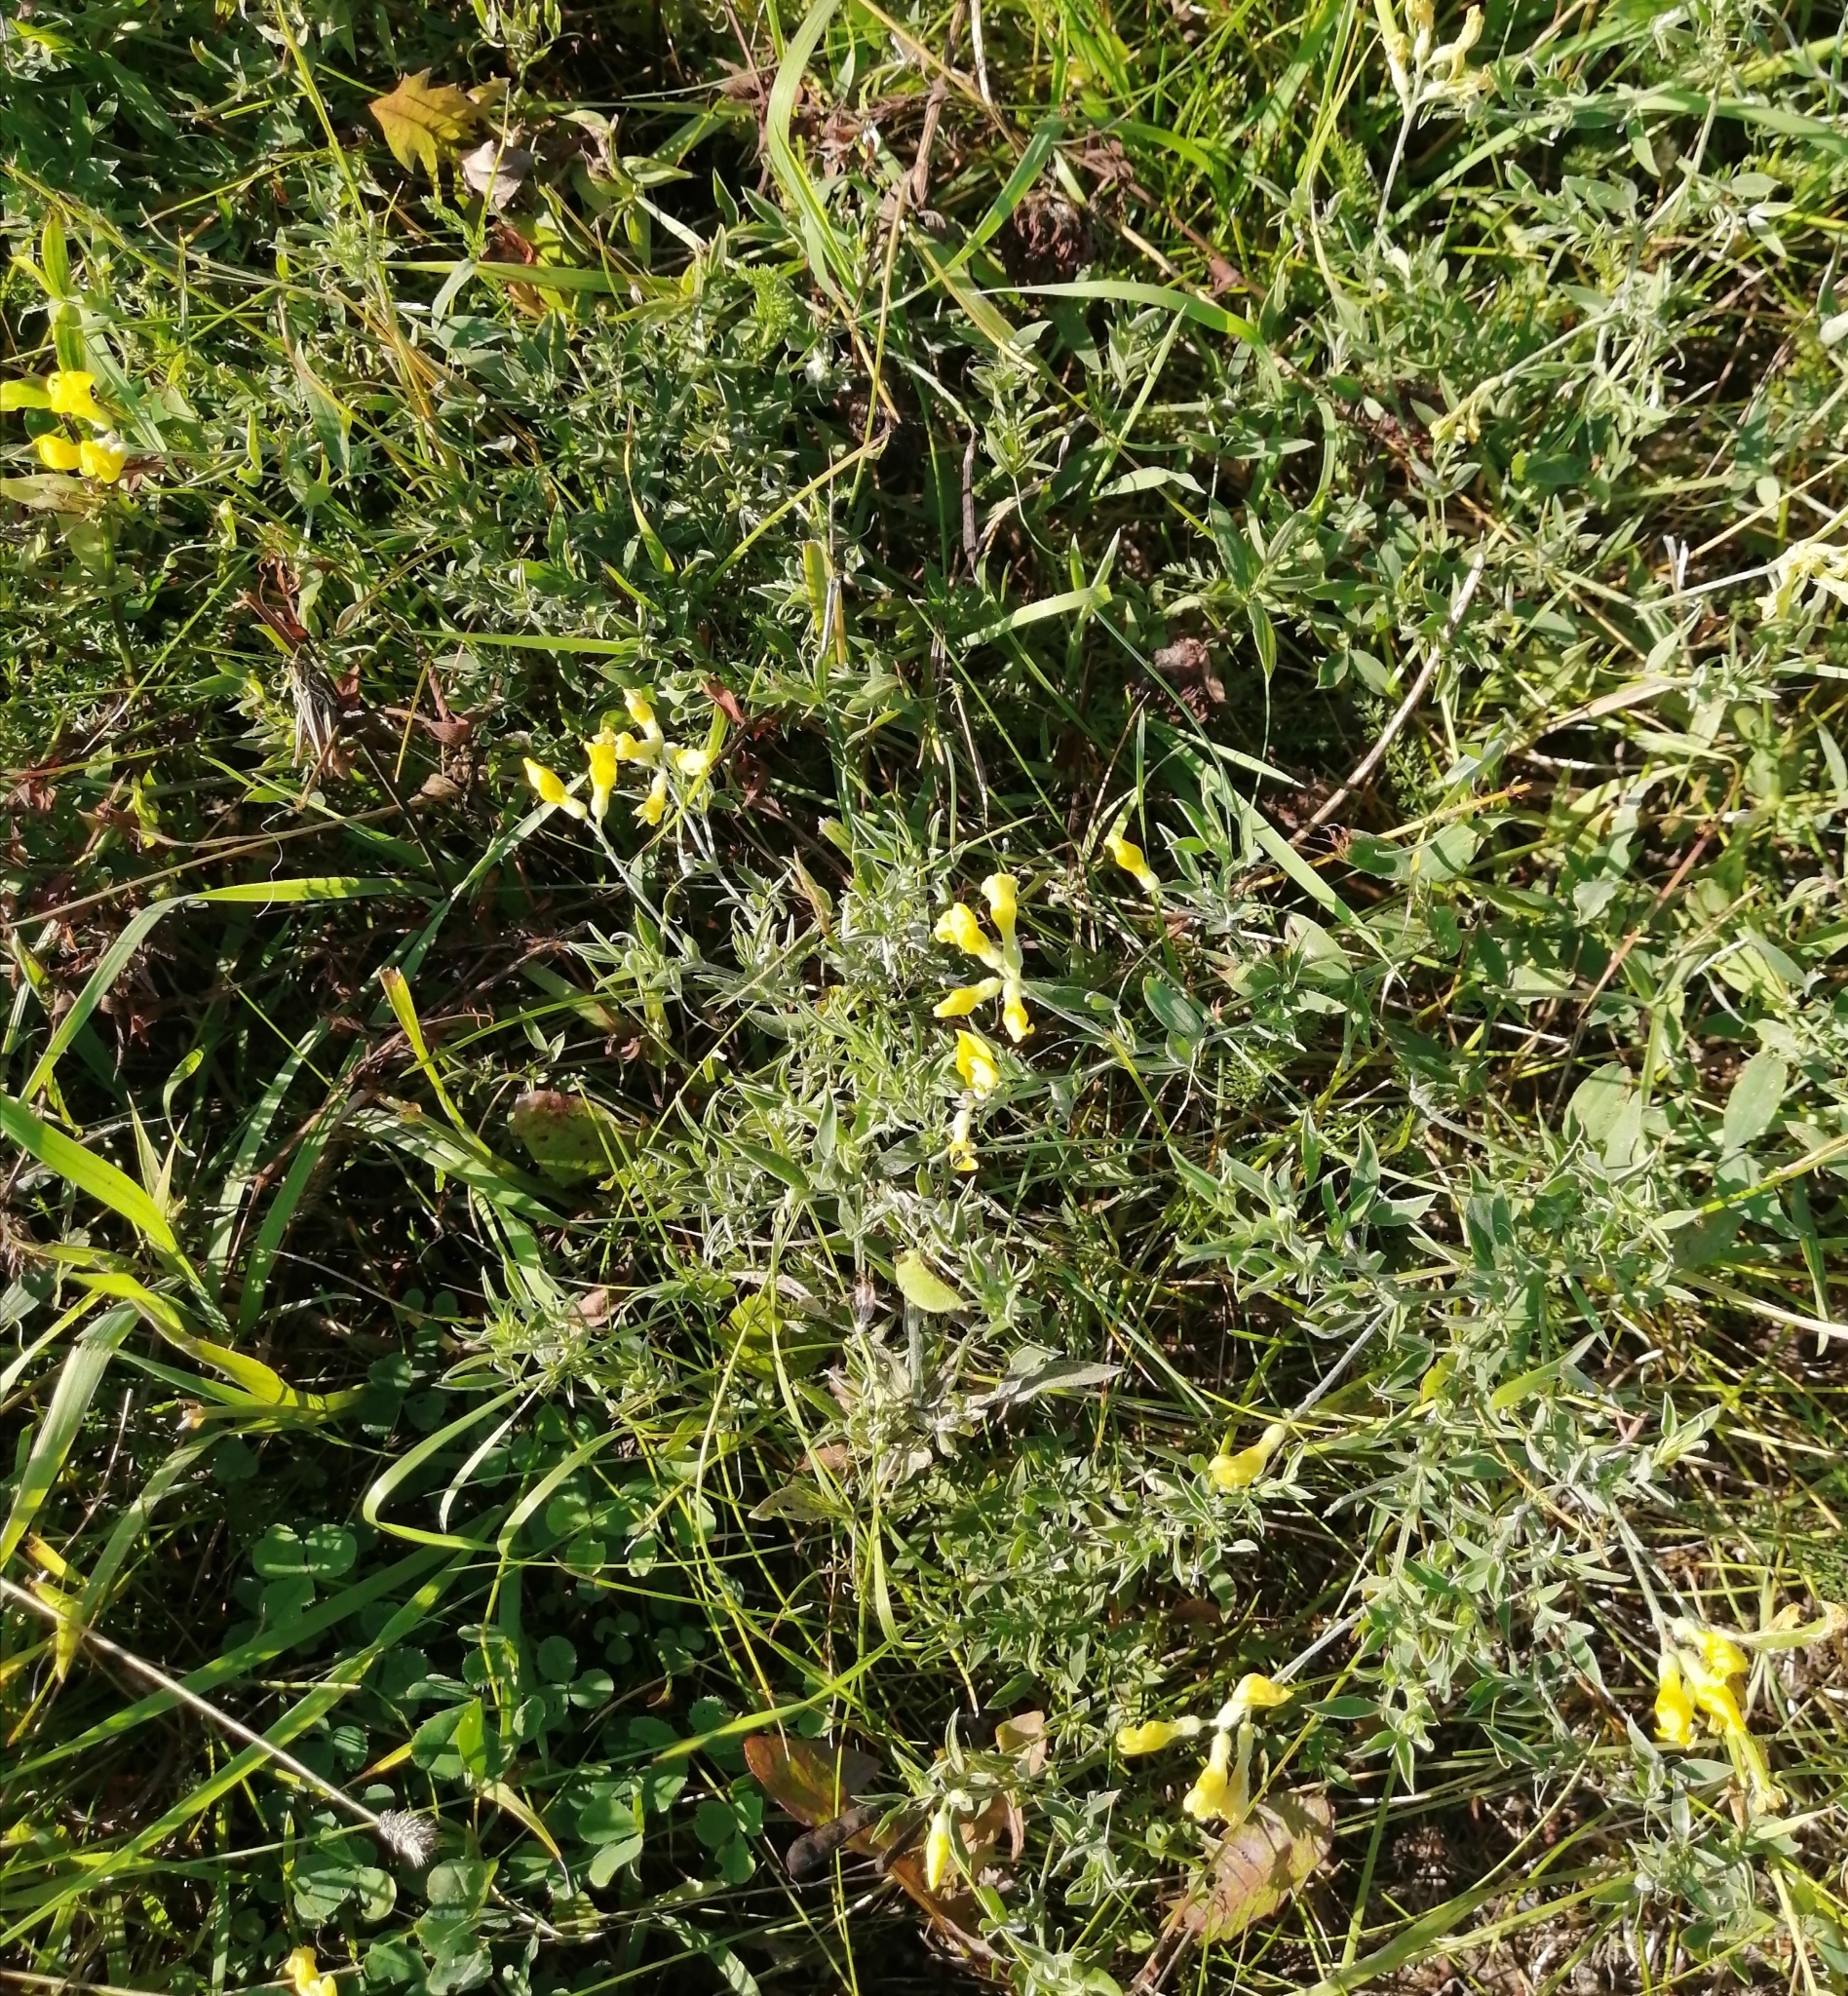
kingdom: Plantae
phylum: Tracheophyta
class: Magnoliopsida
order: Fabales
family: Fabaceae
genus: Lathyrus
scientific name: Lathyrus pratensis
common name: Meadow vetchling
